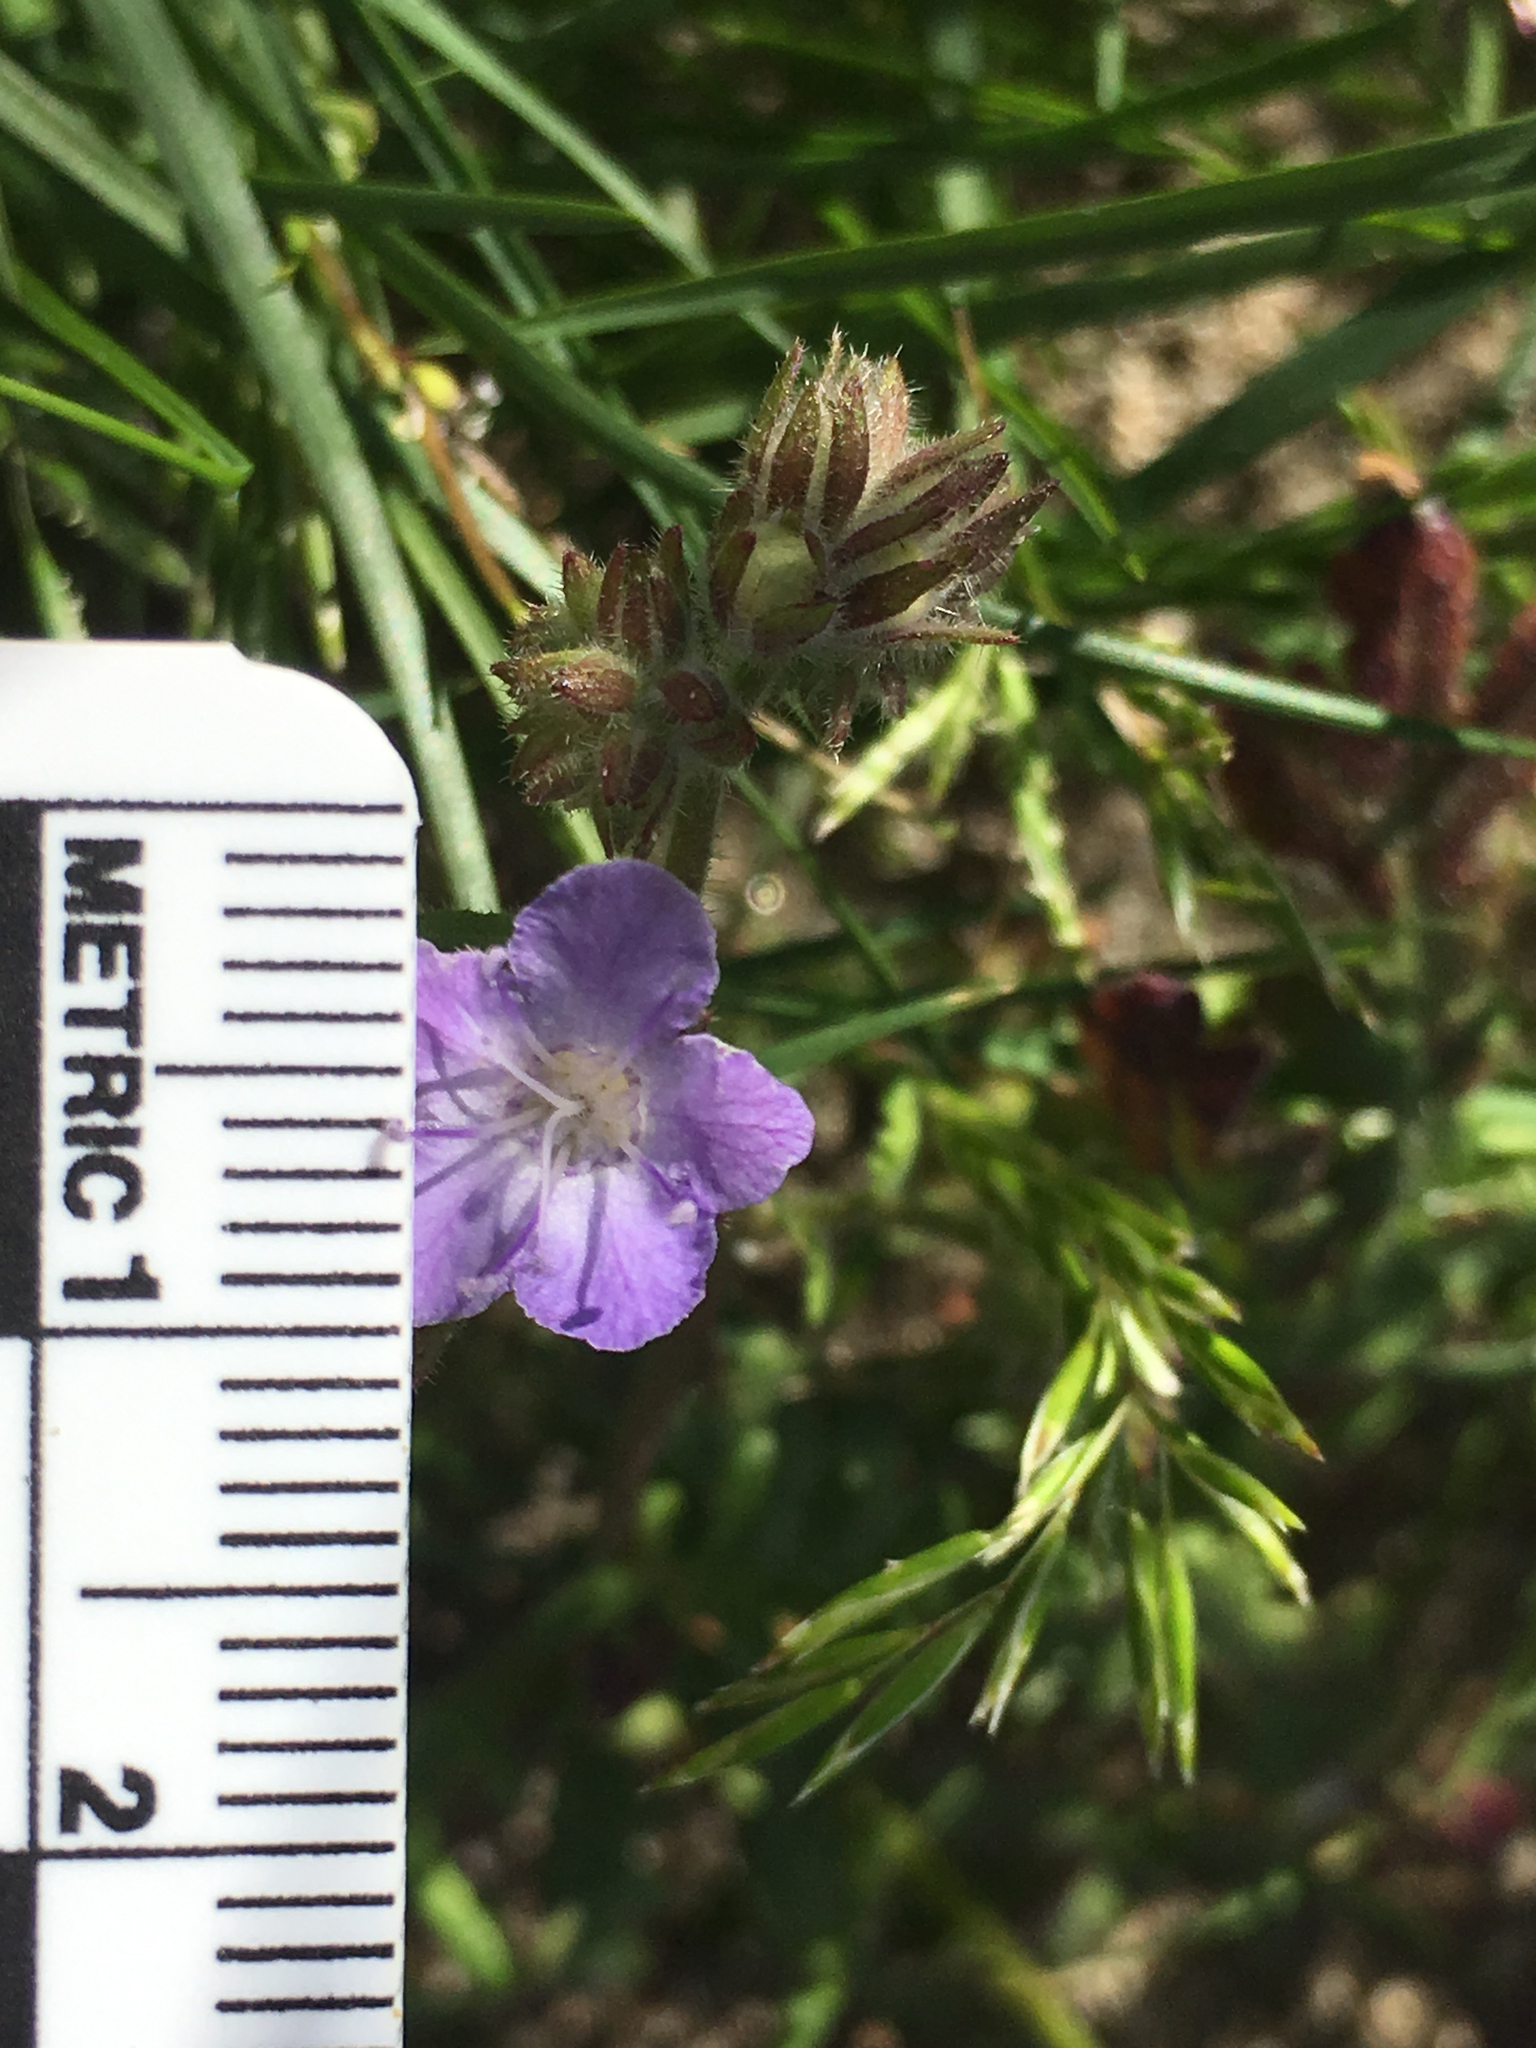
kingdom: Plantae
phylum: Tracheophyta
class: Magnoliopsida
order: Boraginales
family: Hydrophyllaceae
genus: Phacelia
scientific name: Phacelia distans
